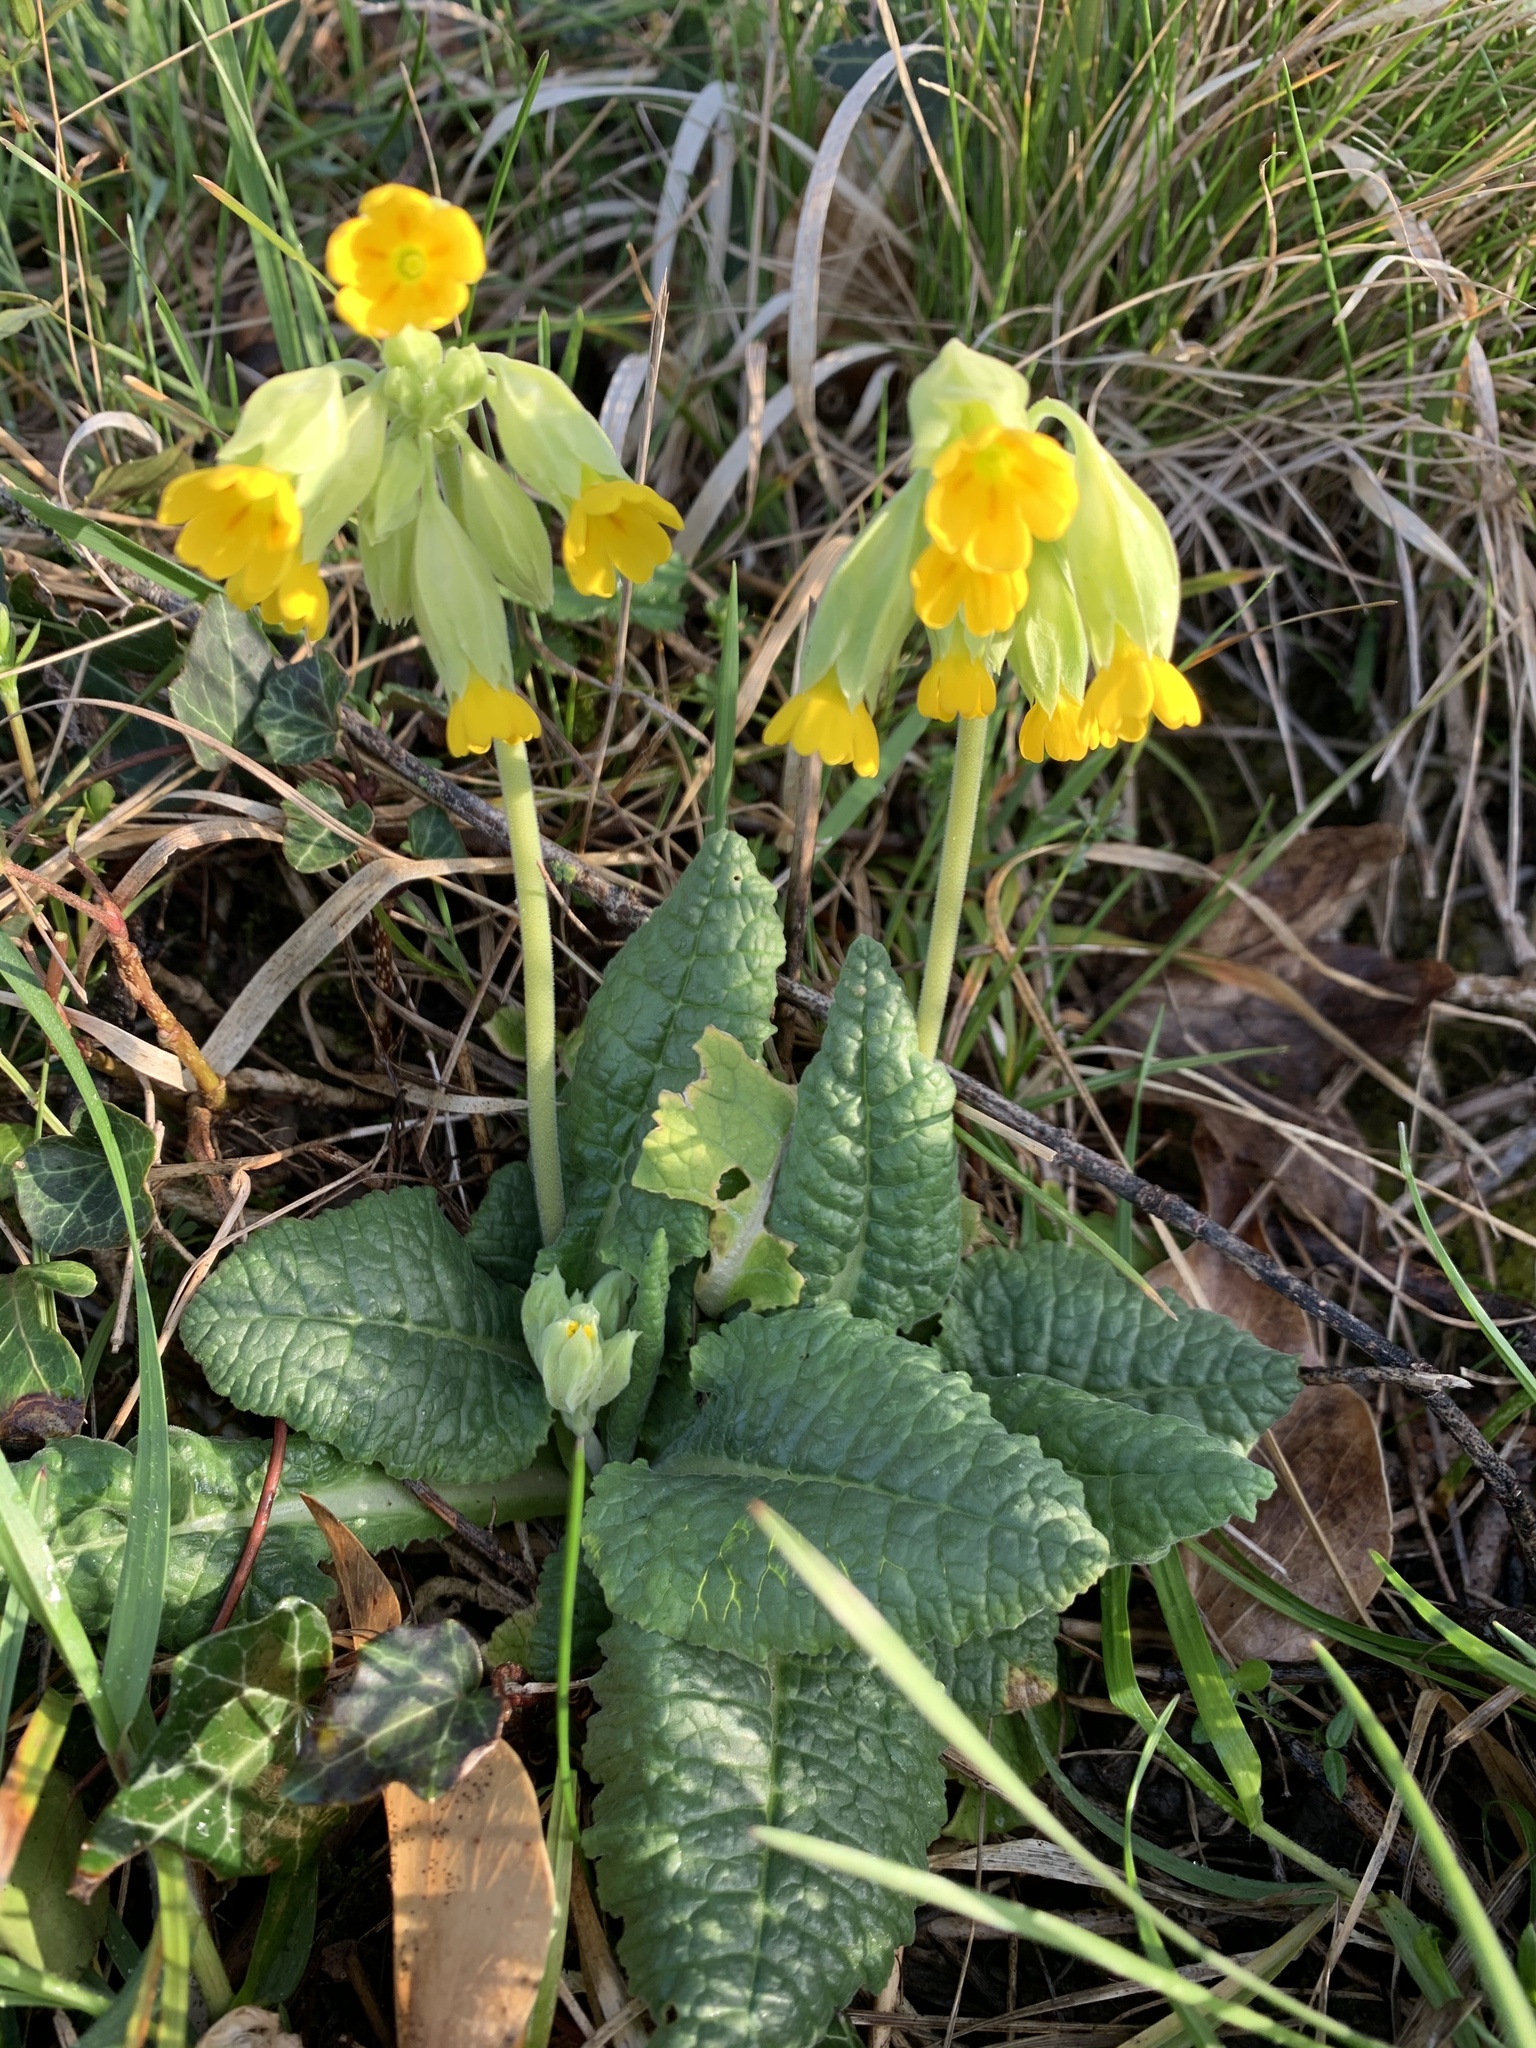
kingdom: Plantae
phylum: Tracheophyta
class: Magnoliopsida
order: Ericales
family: Primulaceae
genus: Primula
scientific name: Primula veris
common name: Cowslip
